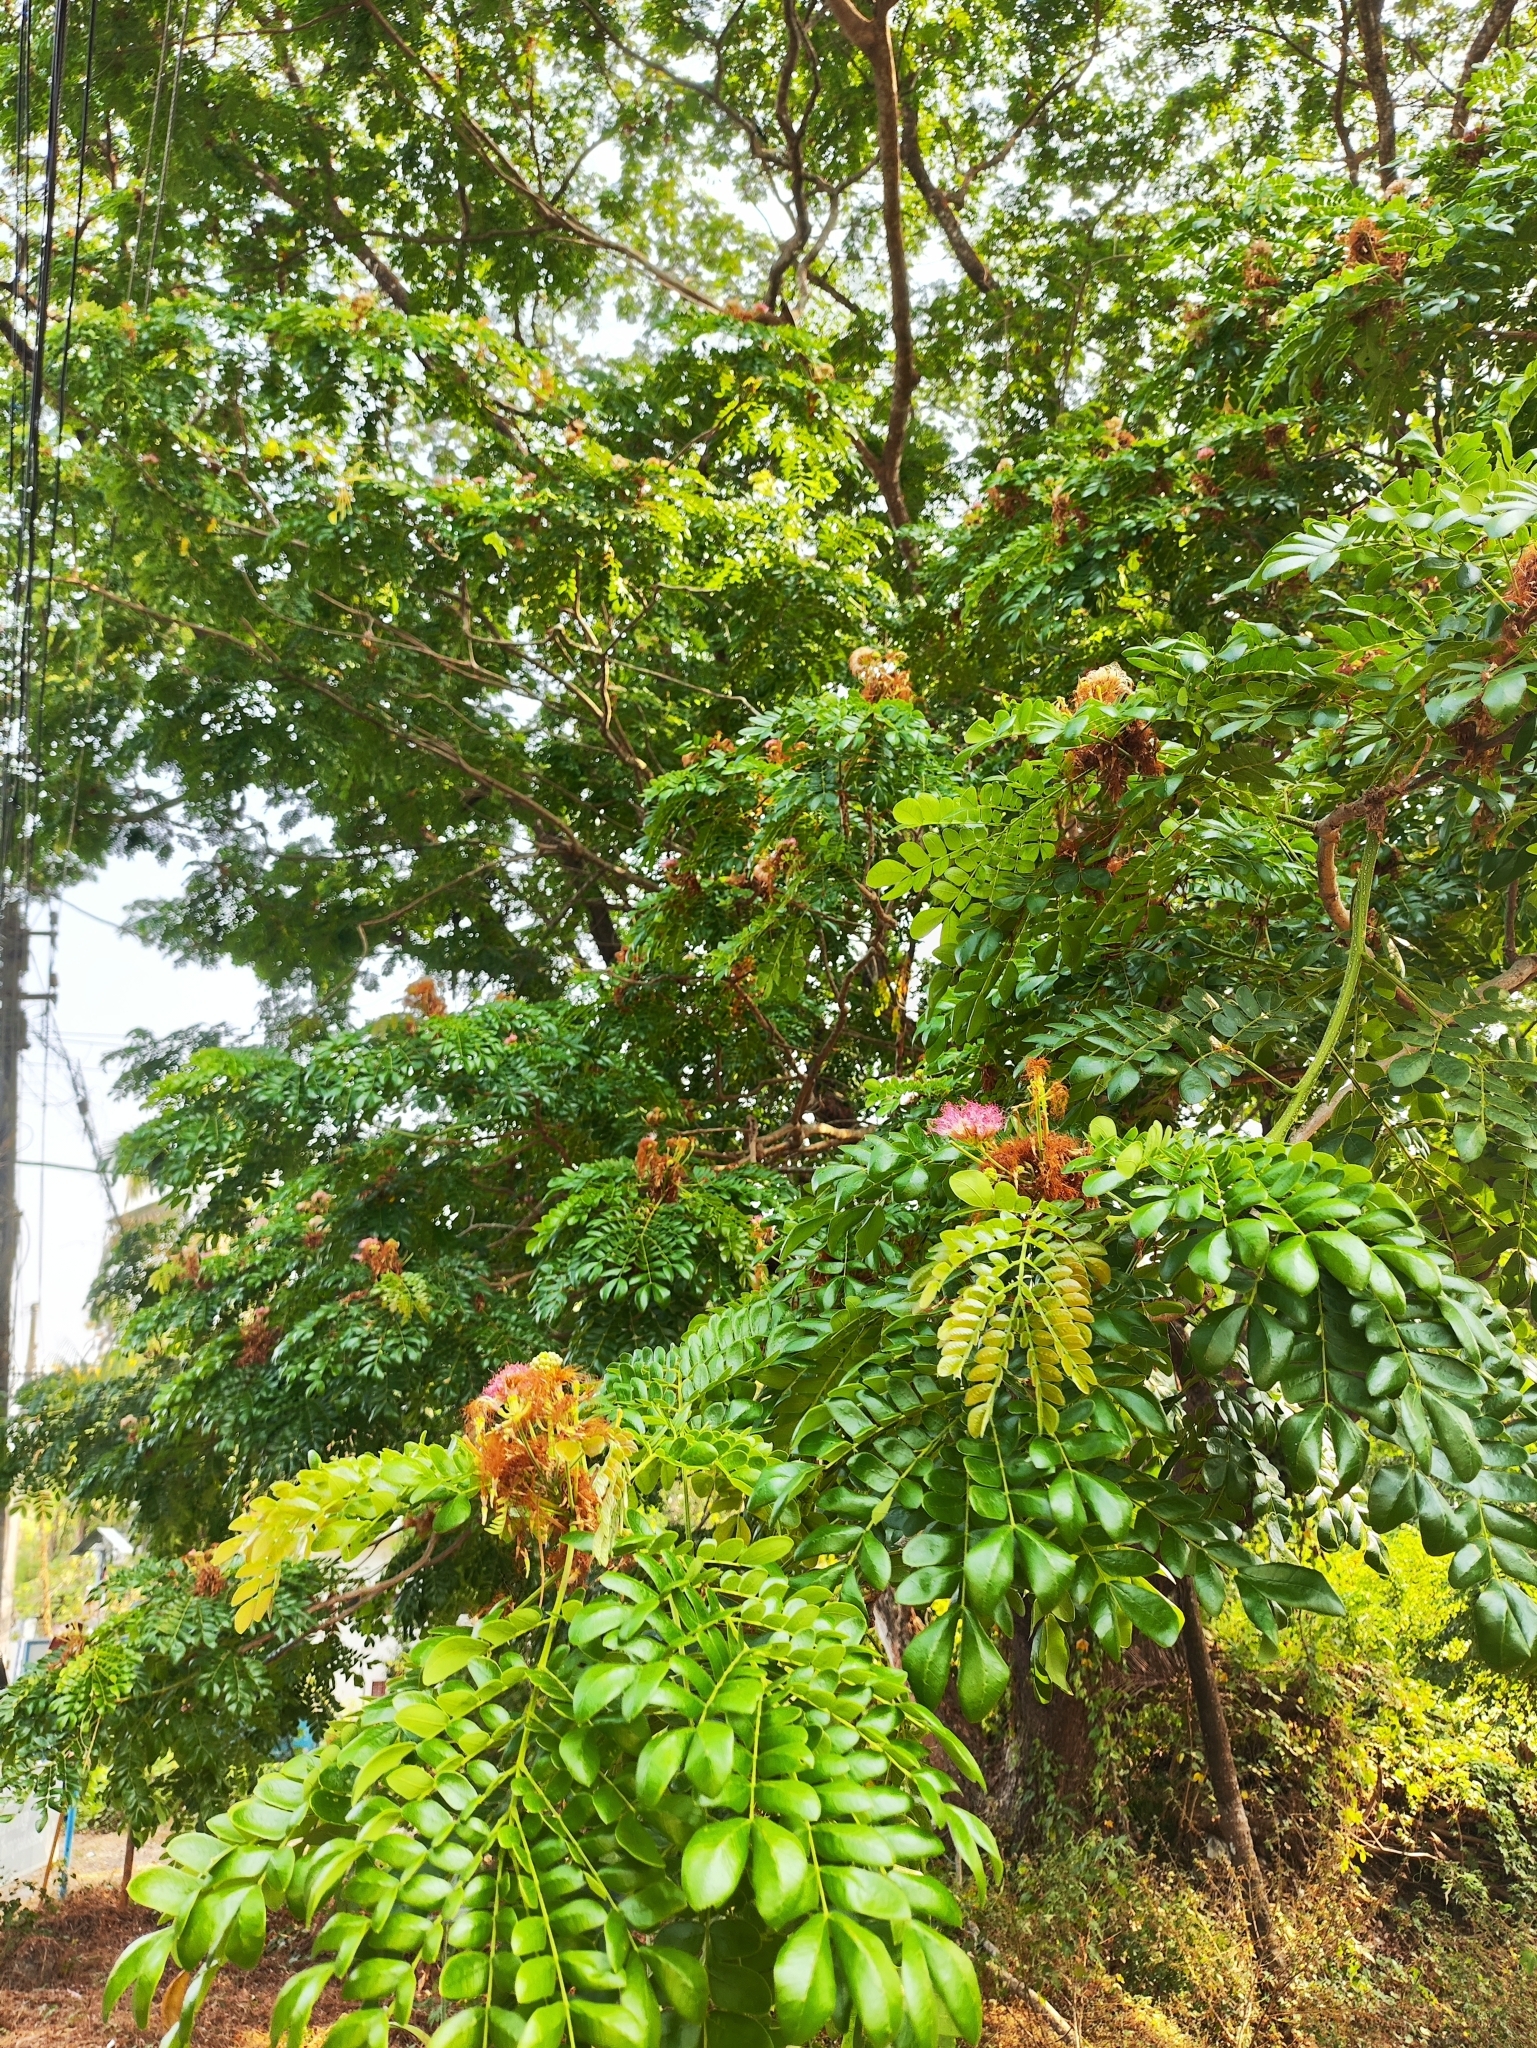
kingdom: Plantae
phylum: Tracheophyta
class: Magnoliopsida
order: Fabales
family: Fabaceae
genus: Samanea
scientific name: Samanea saman
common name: Raintree
